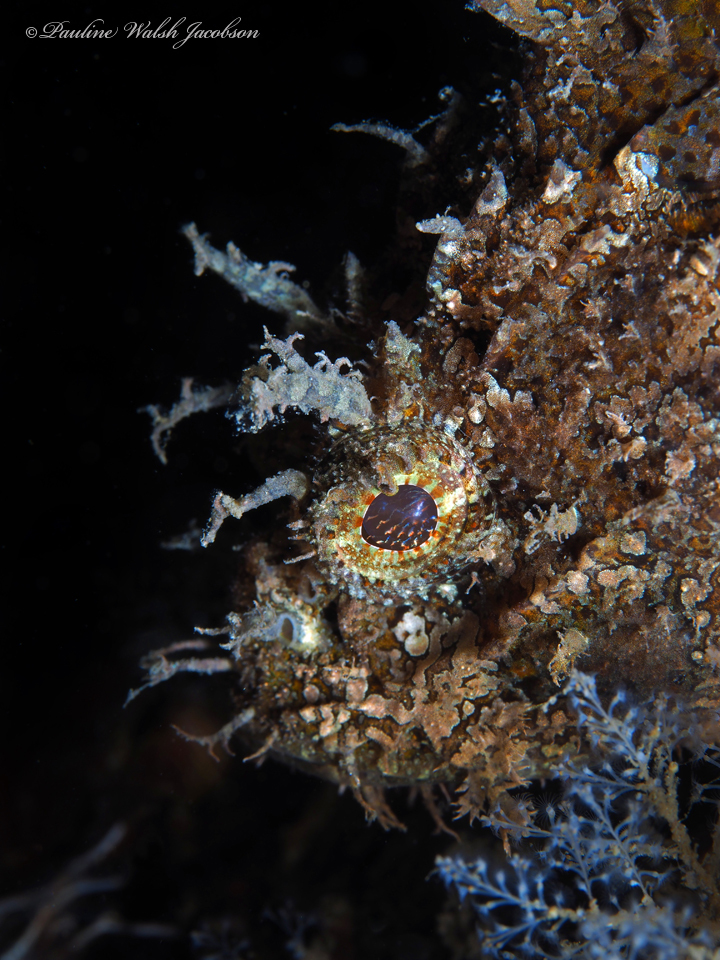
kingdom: Animalia
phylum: Chordata
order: Scorpaeniformes
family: Scorpaenidae
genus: Scorpaena
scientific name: Scorpaena plumieri
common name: Spotted scorpionfish
